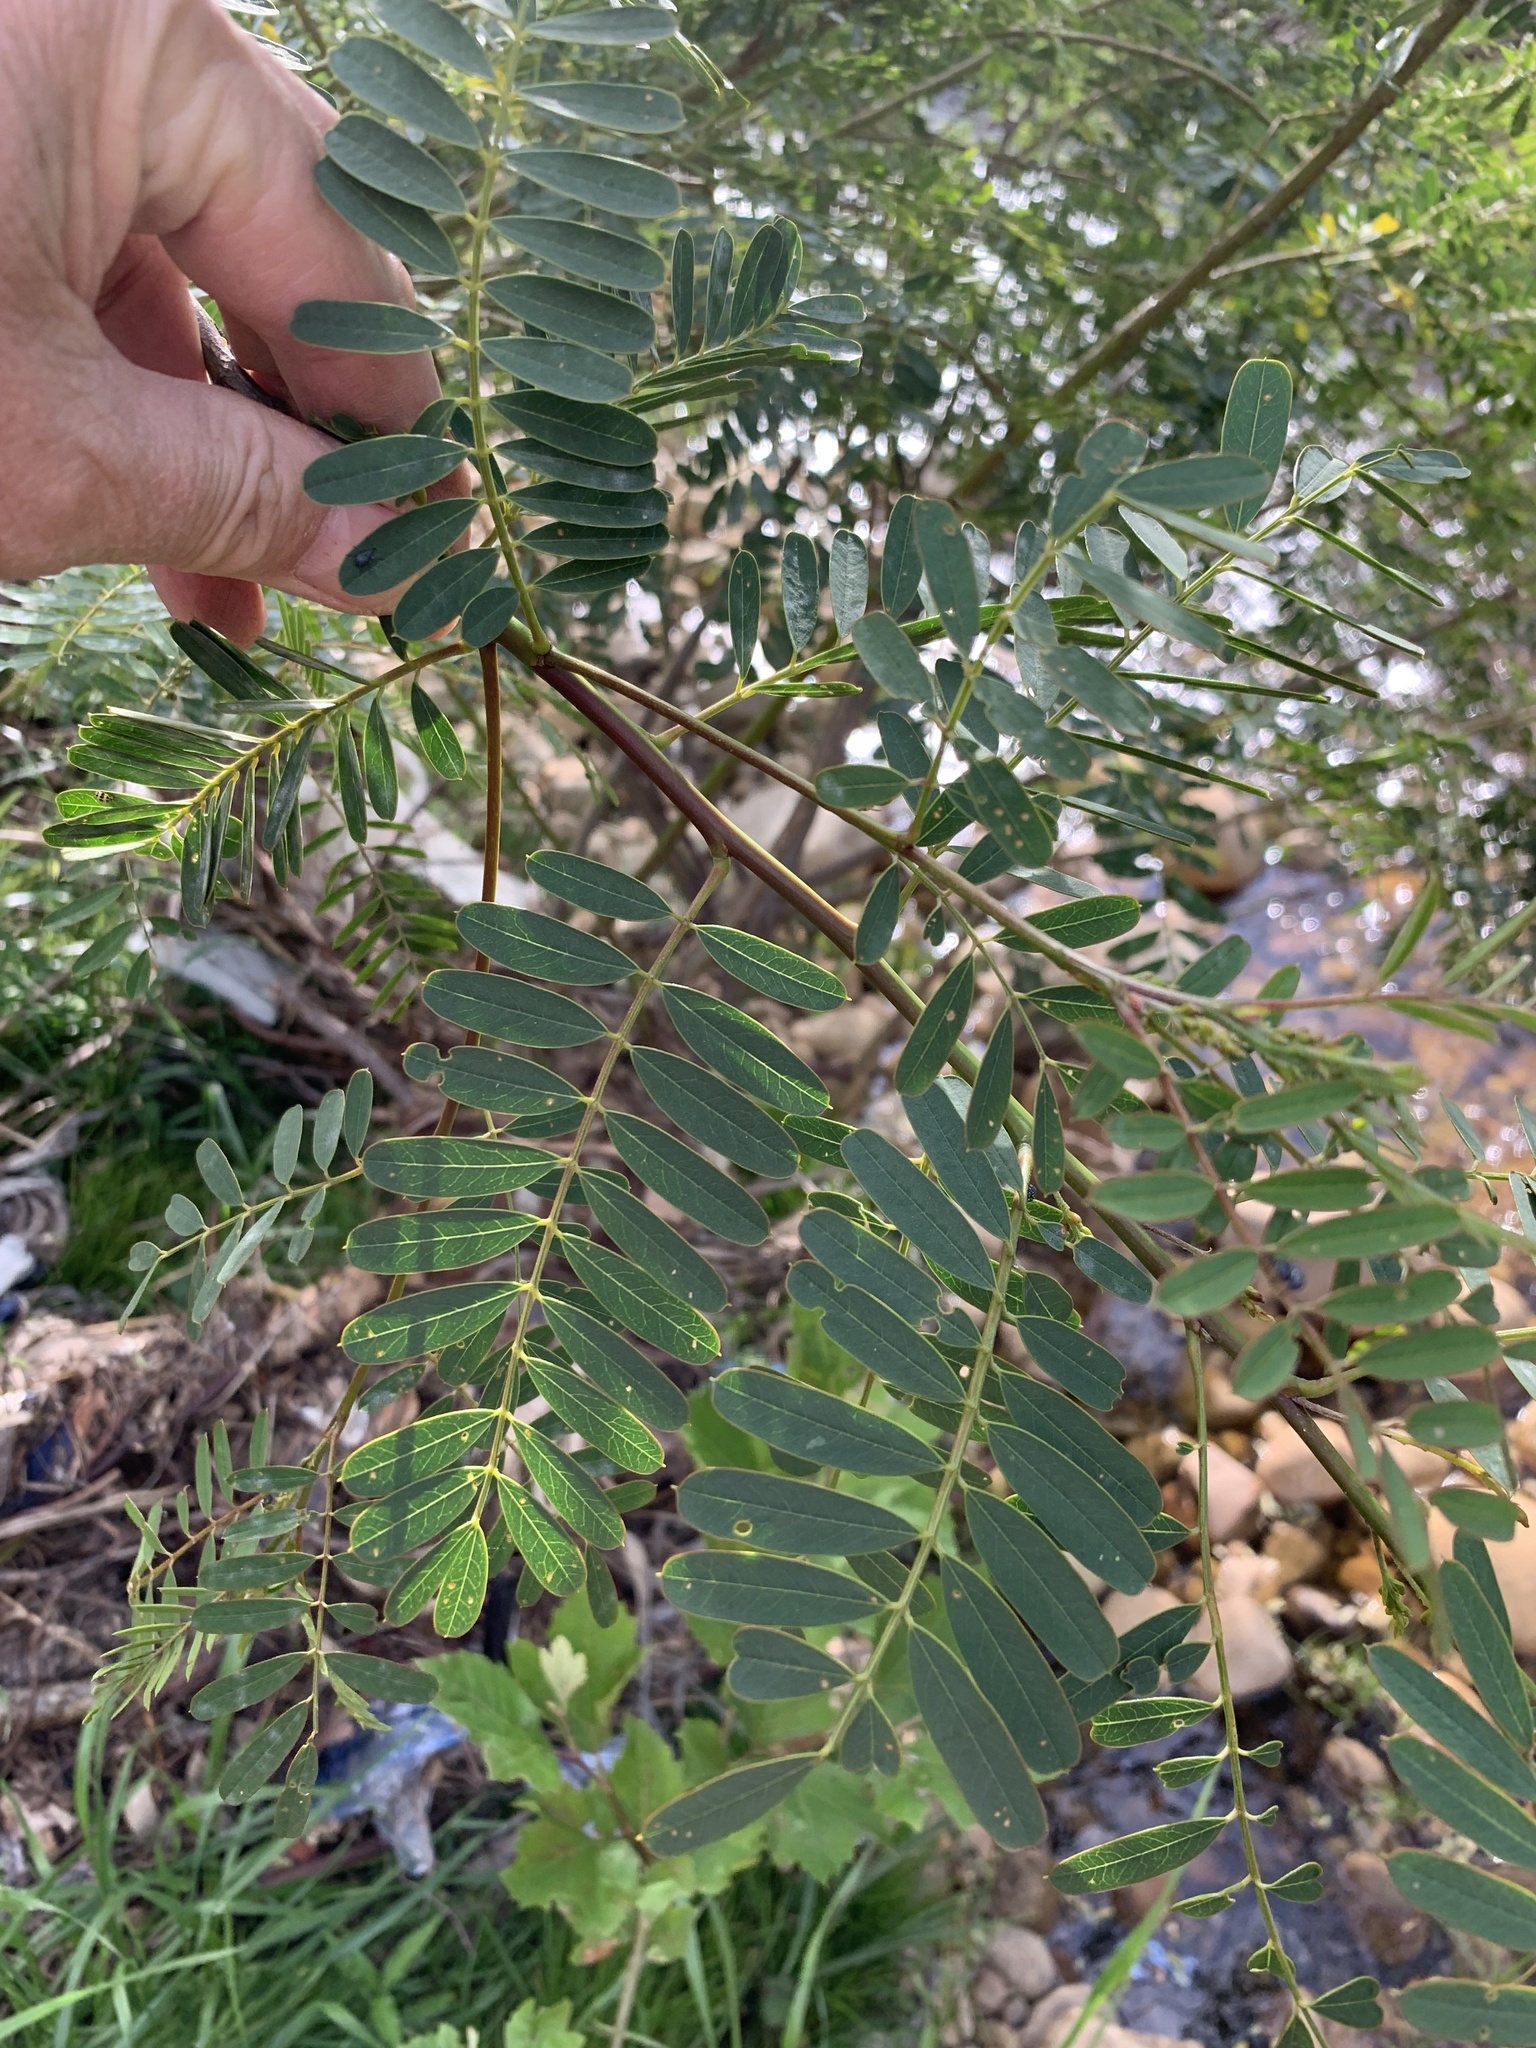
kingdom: Plantae
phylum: Tracheophyta
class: Magnoliopsida
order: Fabales
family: Fabaceae
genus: Sesbania
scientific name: Sesbania punicea
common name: Rattlebox
